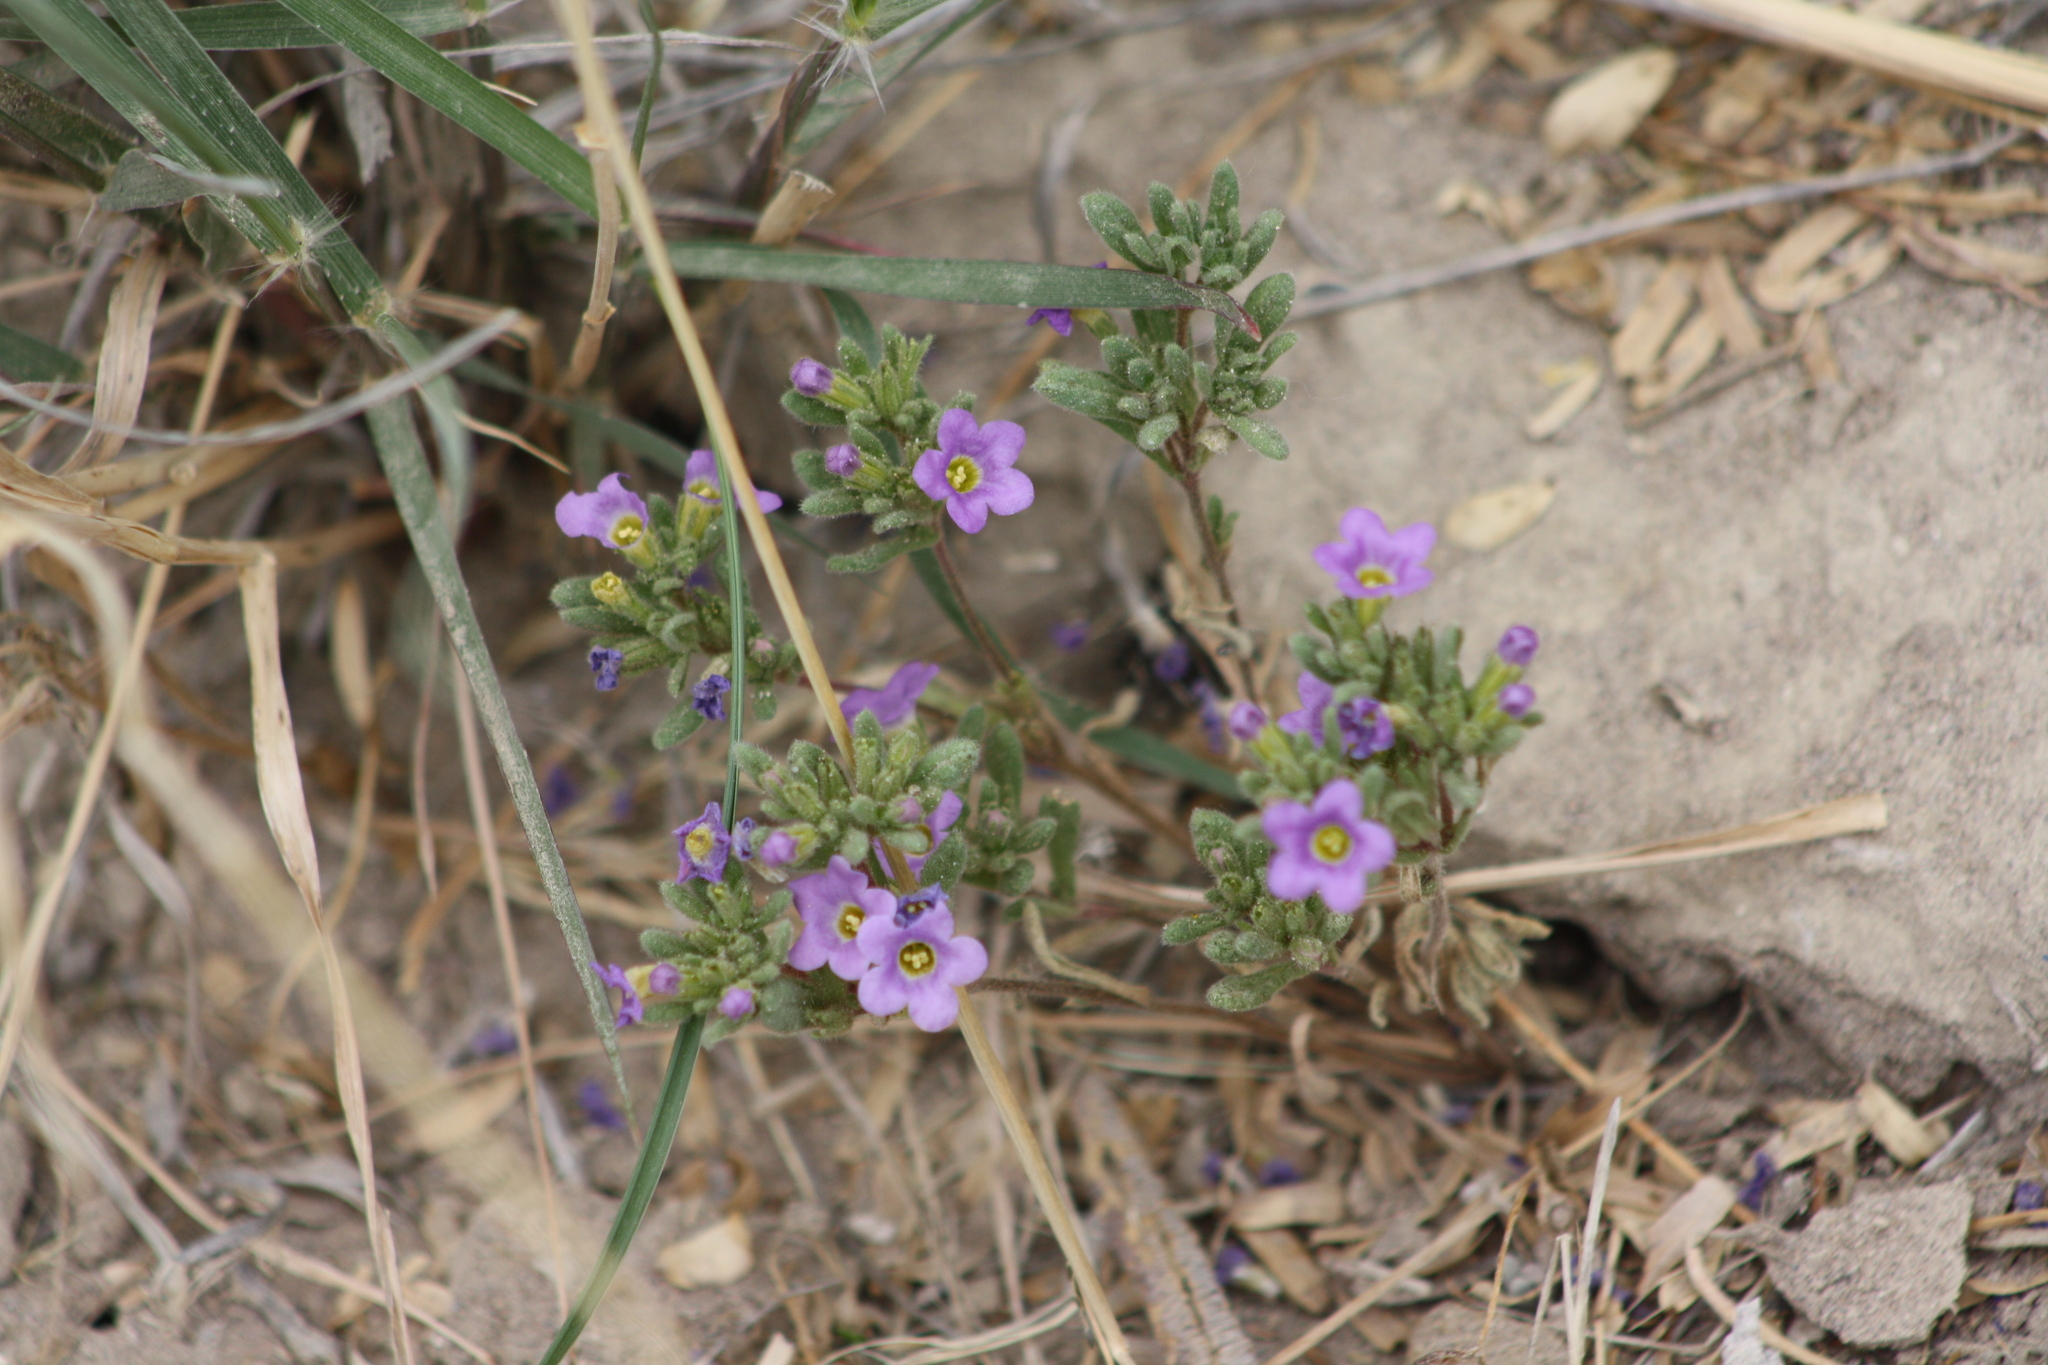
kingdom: Plantae
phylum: Tracheophyta
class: Magnoliopsida
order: Boraginales
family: Namaceae
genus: Nama
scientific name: Nama hispida
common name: Bristly nama
